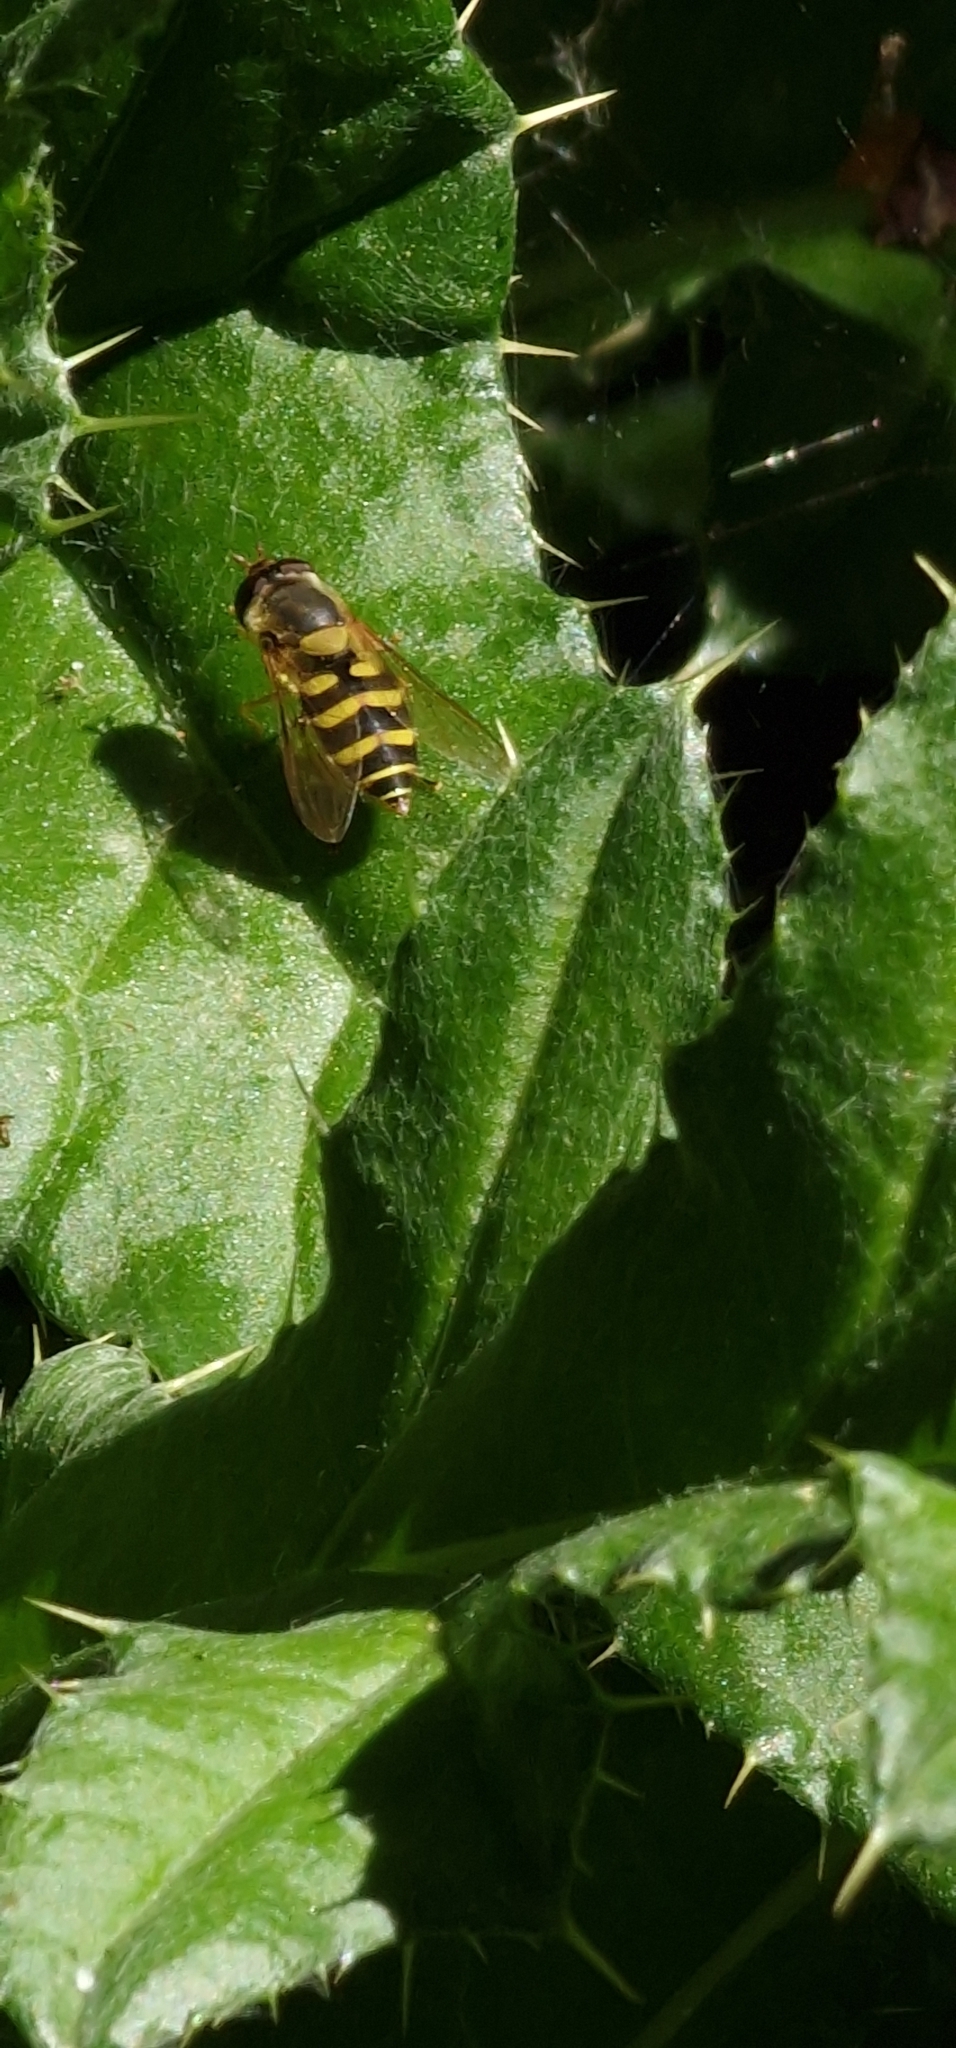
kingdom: Animalia
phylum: Arthropoda
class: Insecta
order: Diptera
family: Syrphidae
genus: Syrphus
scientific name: Syrphus
